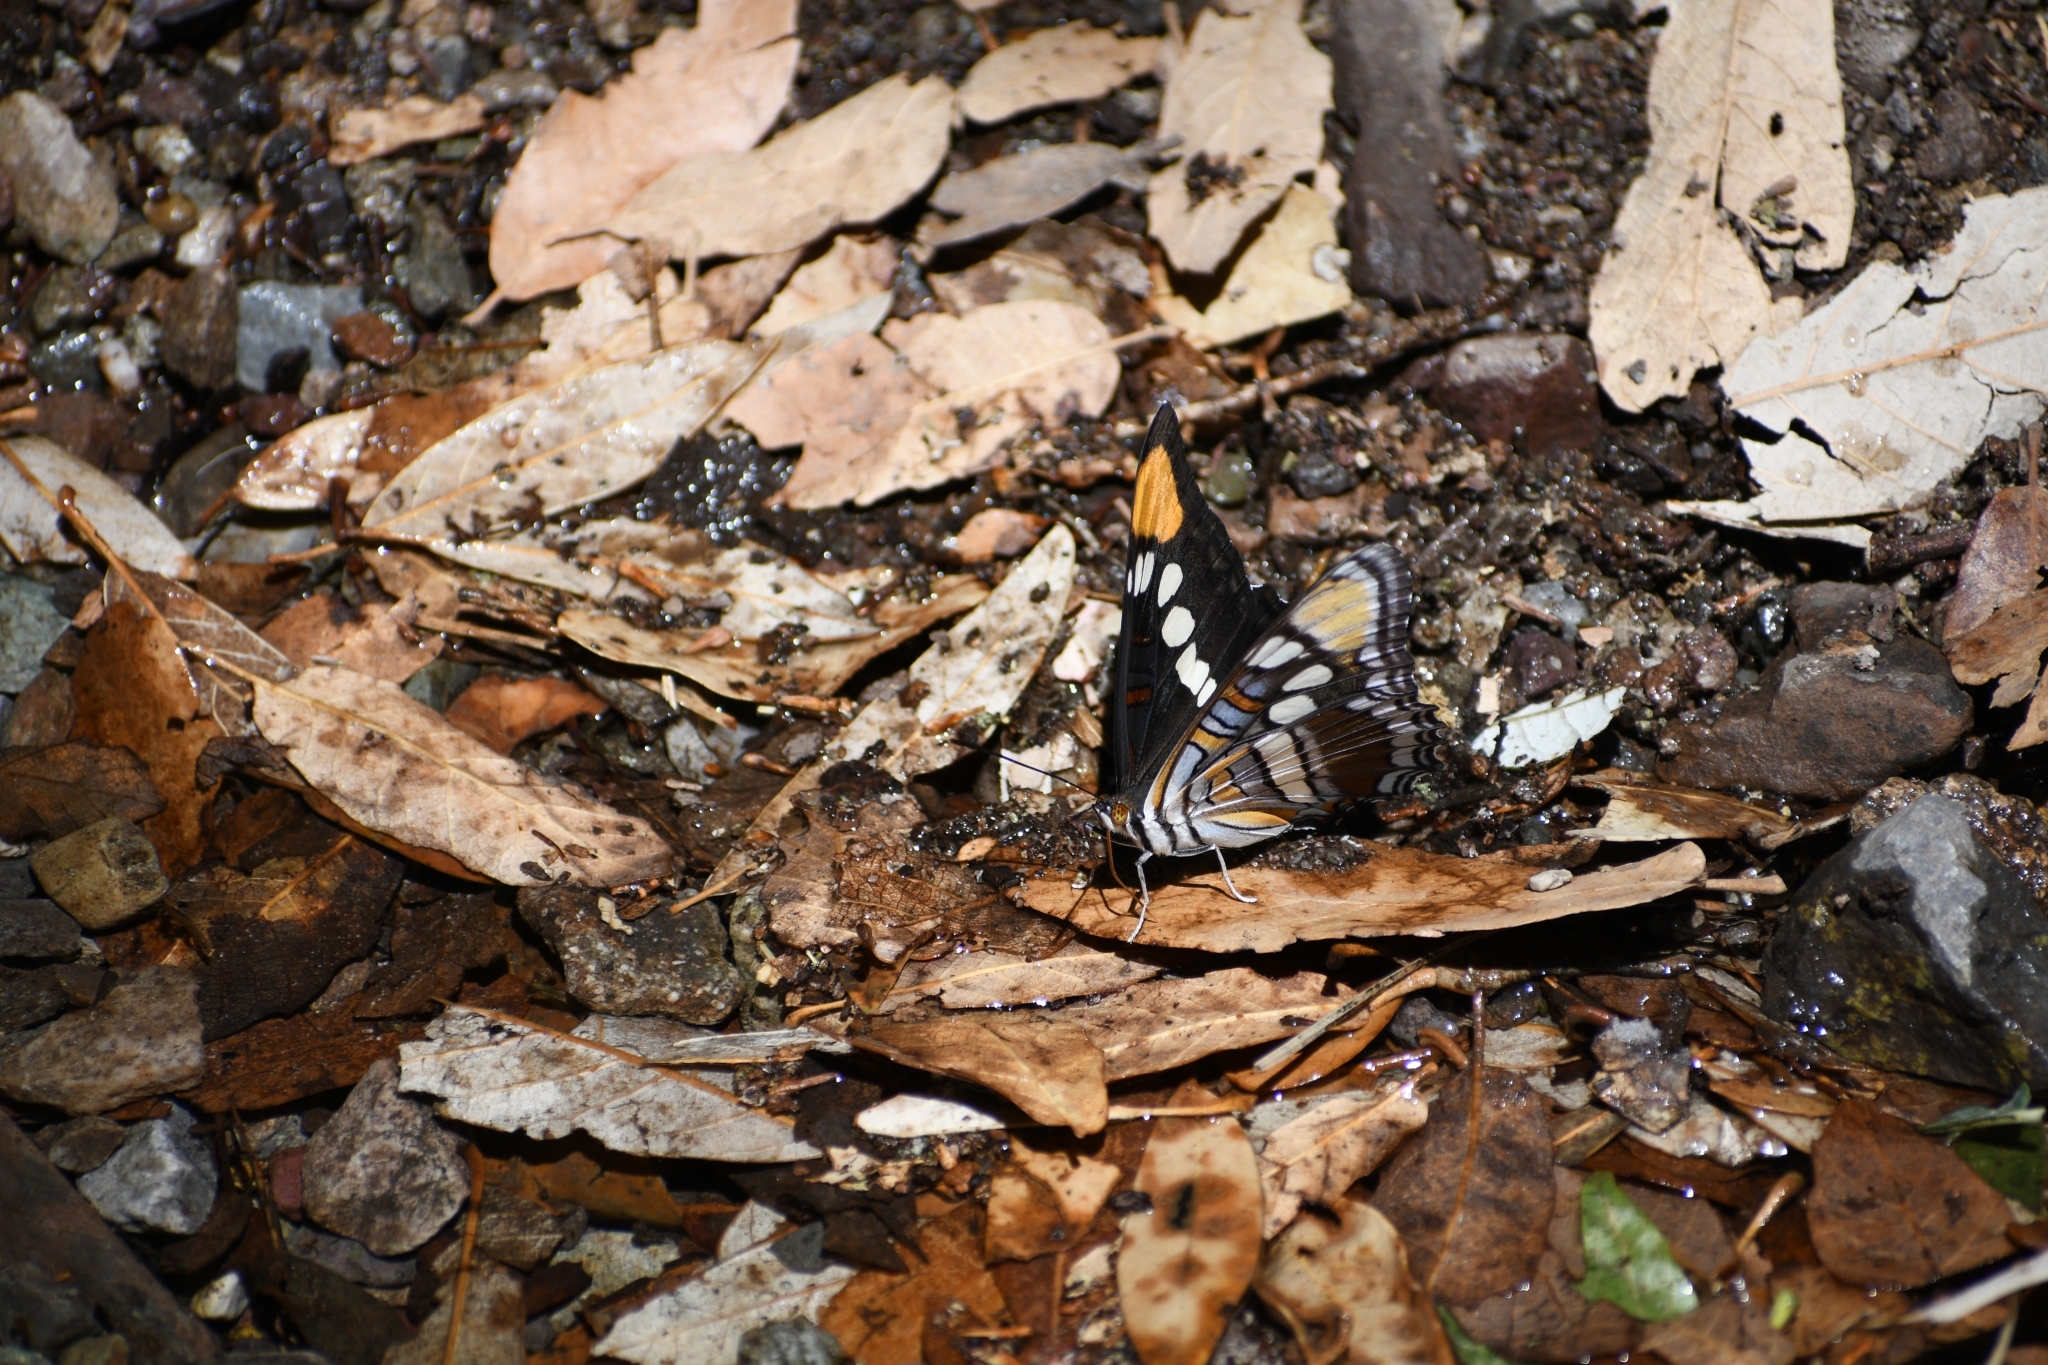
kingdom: Animalia
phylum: Arthropoda
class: Insecta
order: Lepidoptera
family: Nymphalidae
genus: Limenitis
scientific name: Limenitis bredowii
